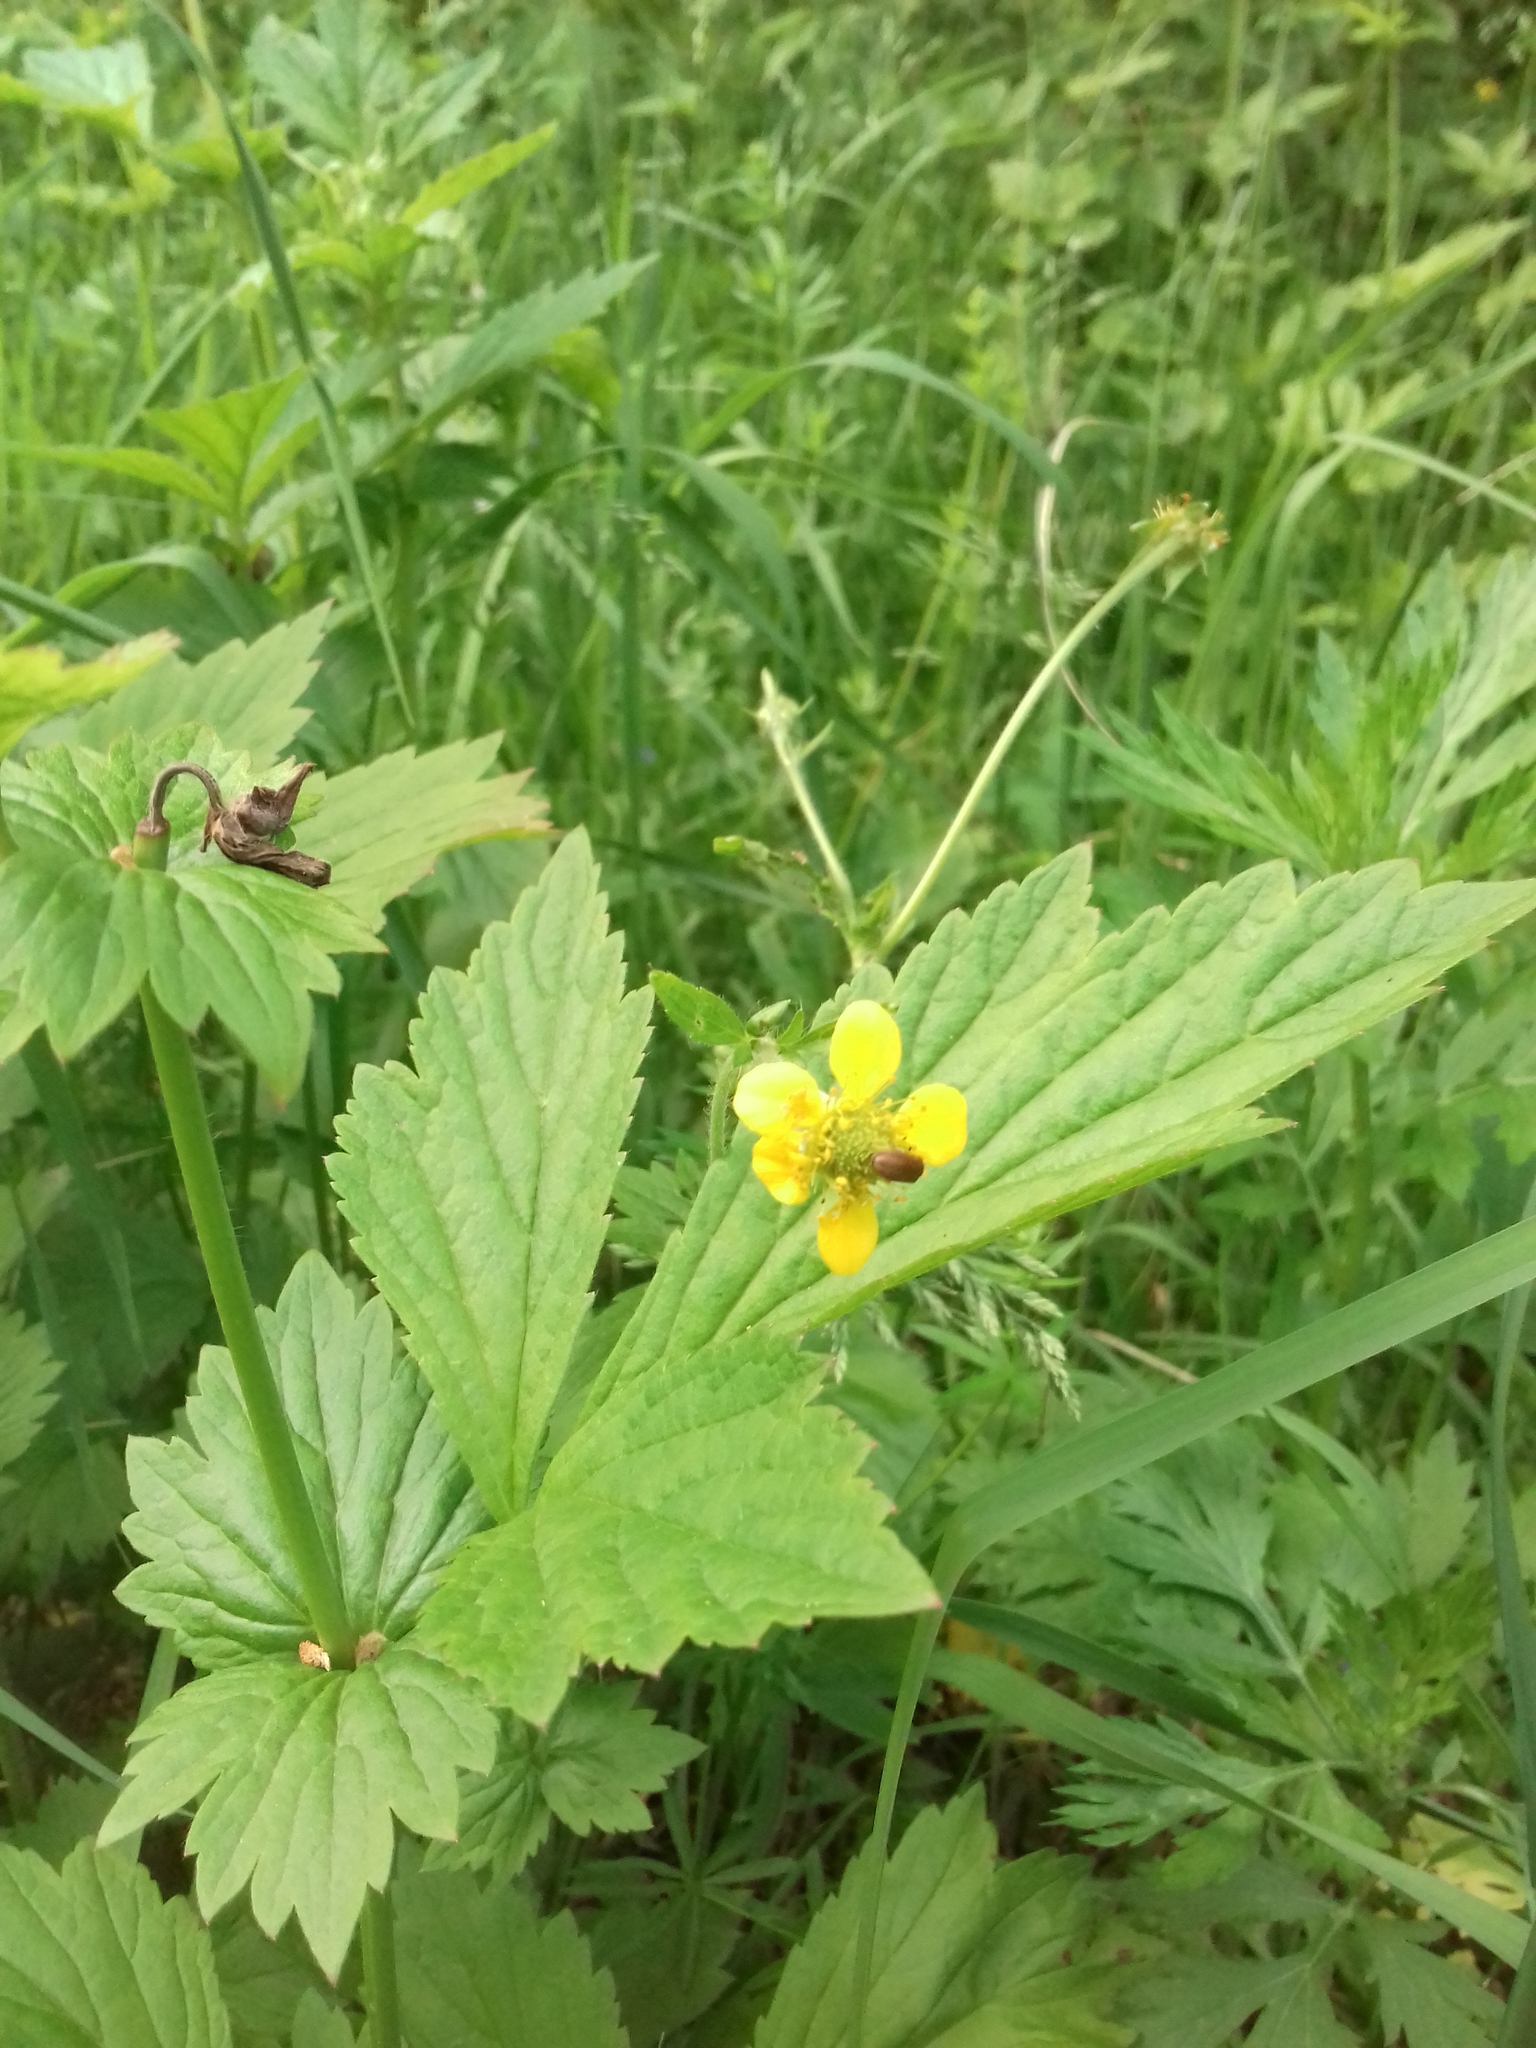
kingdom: Plantae
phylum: Tracheophyta
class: Magnoliopsida
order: Rosales
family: Rosaceae
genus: Geum
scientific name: Geum aleppicum
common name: Yellow avens
